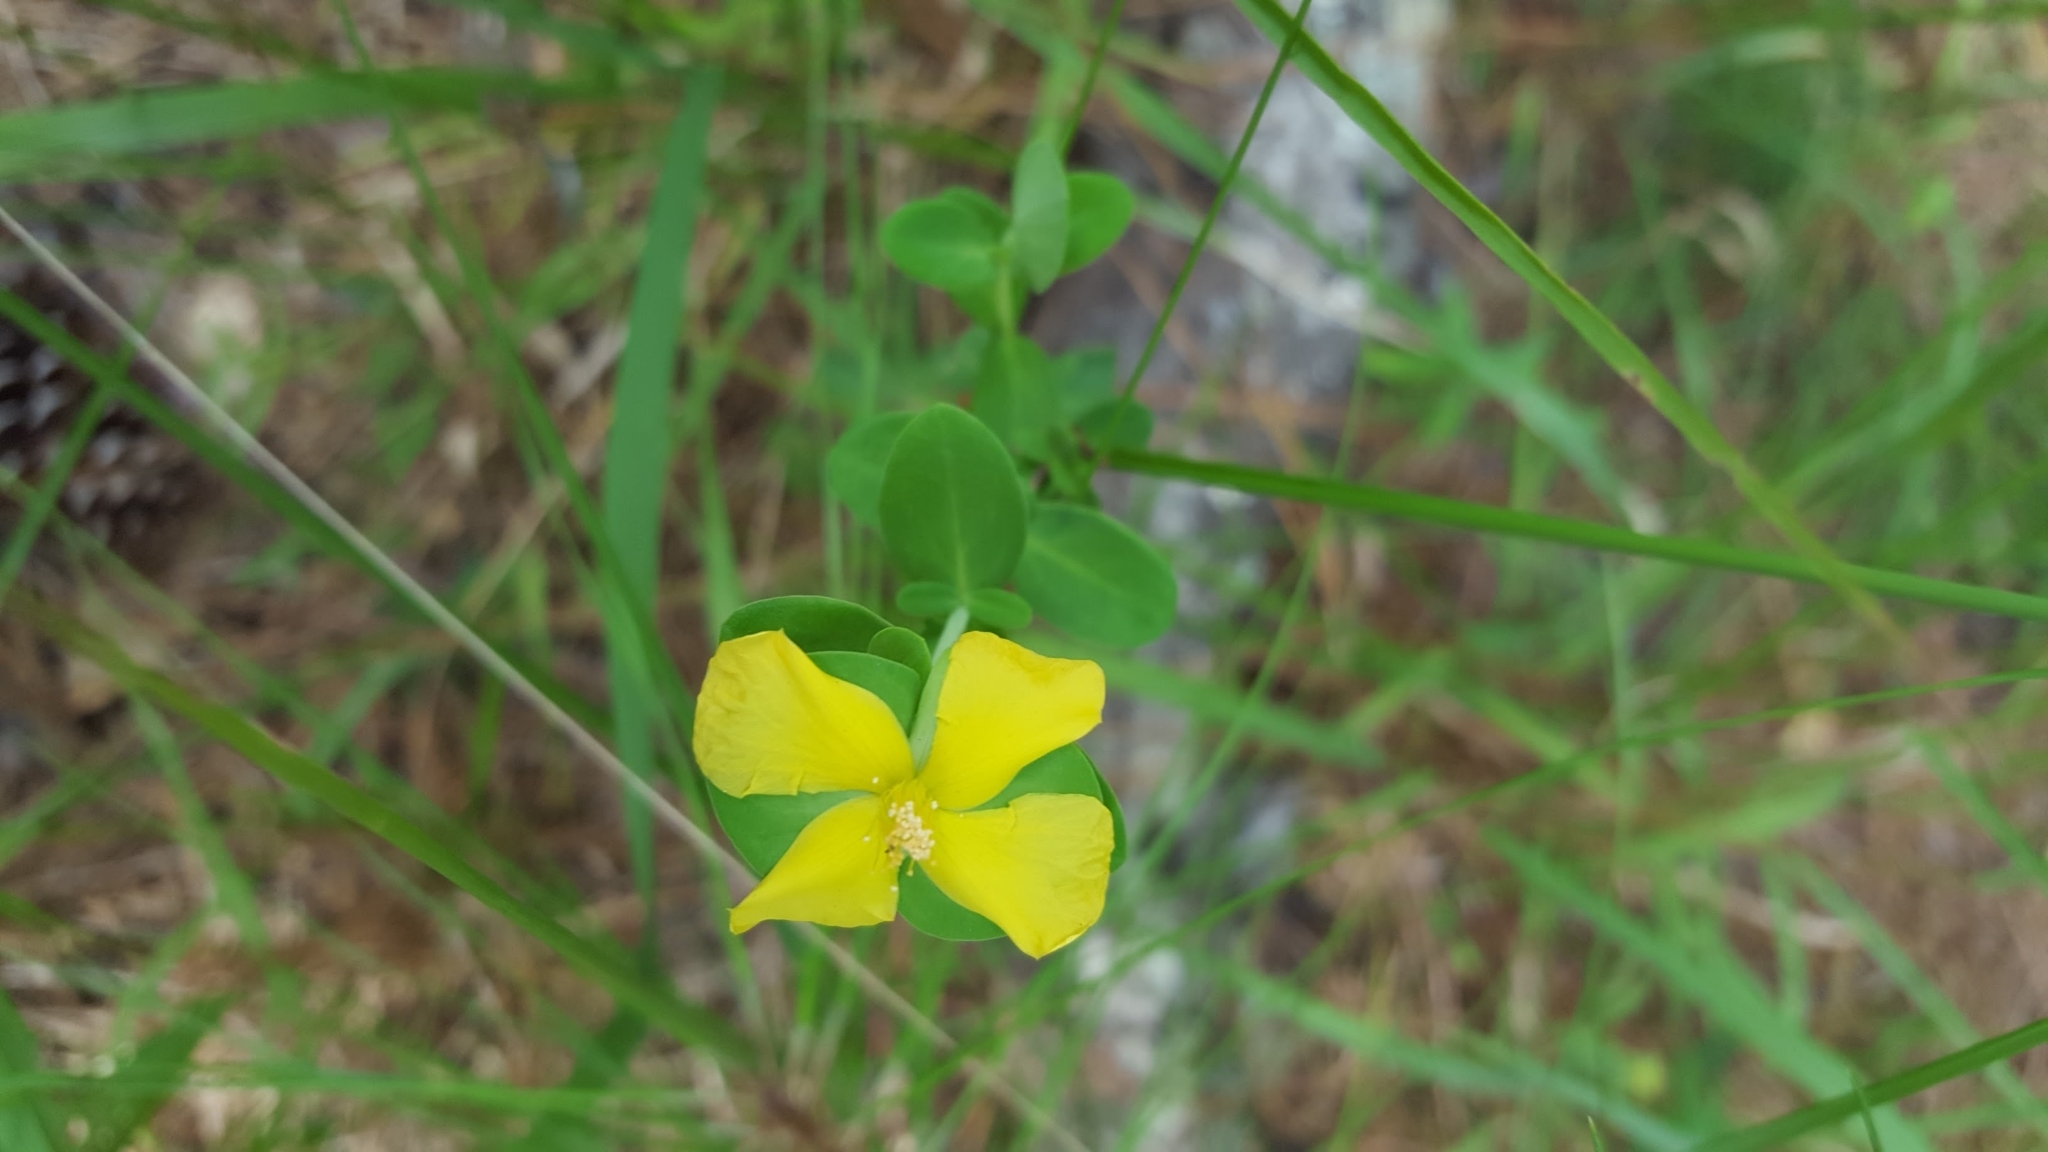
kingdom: Plantae
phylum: Tracheophyta
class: Magnoliopsida
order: Malpighiales
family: Hypericaceae
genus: Hypericum
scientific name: Hypericum crux-andreae
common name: St.-peter's-wort
